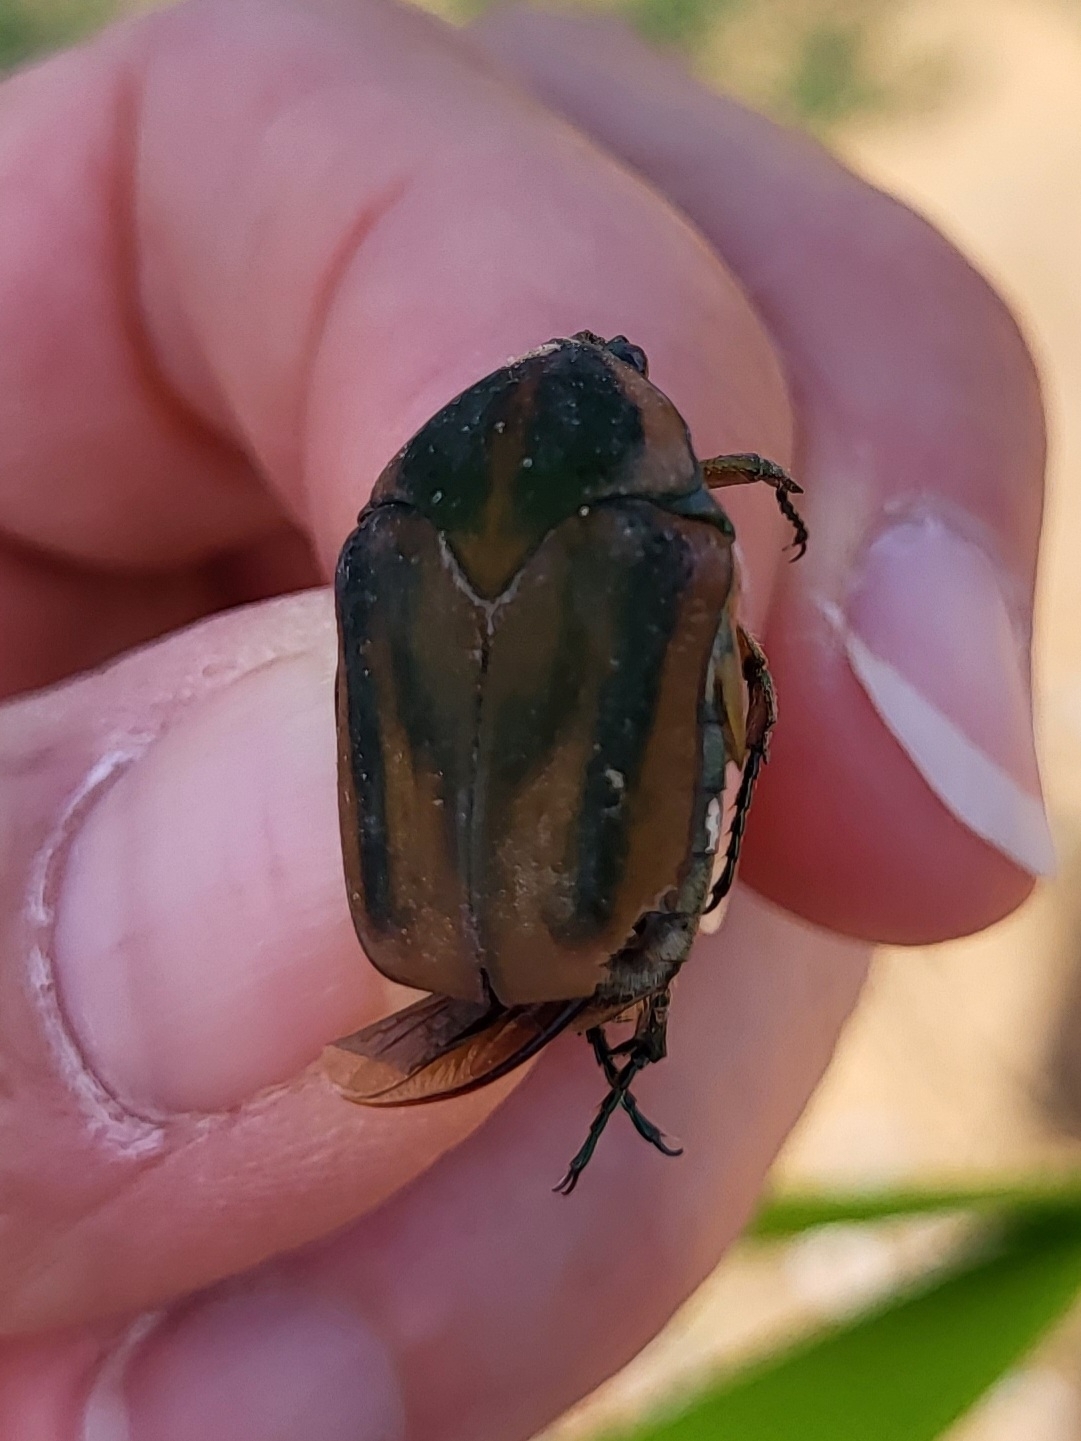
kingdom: Animalia
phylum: Arthropoda
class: Insecta
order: Coleoptera
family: Scarabaeidae
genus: Cotinis
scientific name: Cotinis nitida
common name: Common green june beetle
